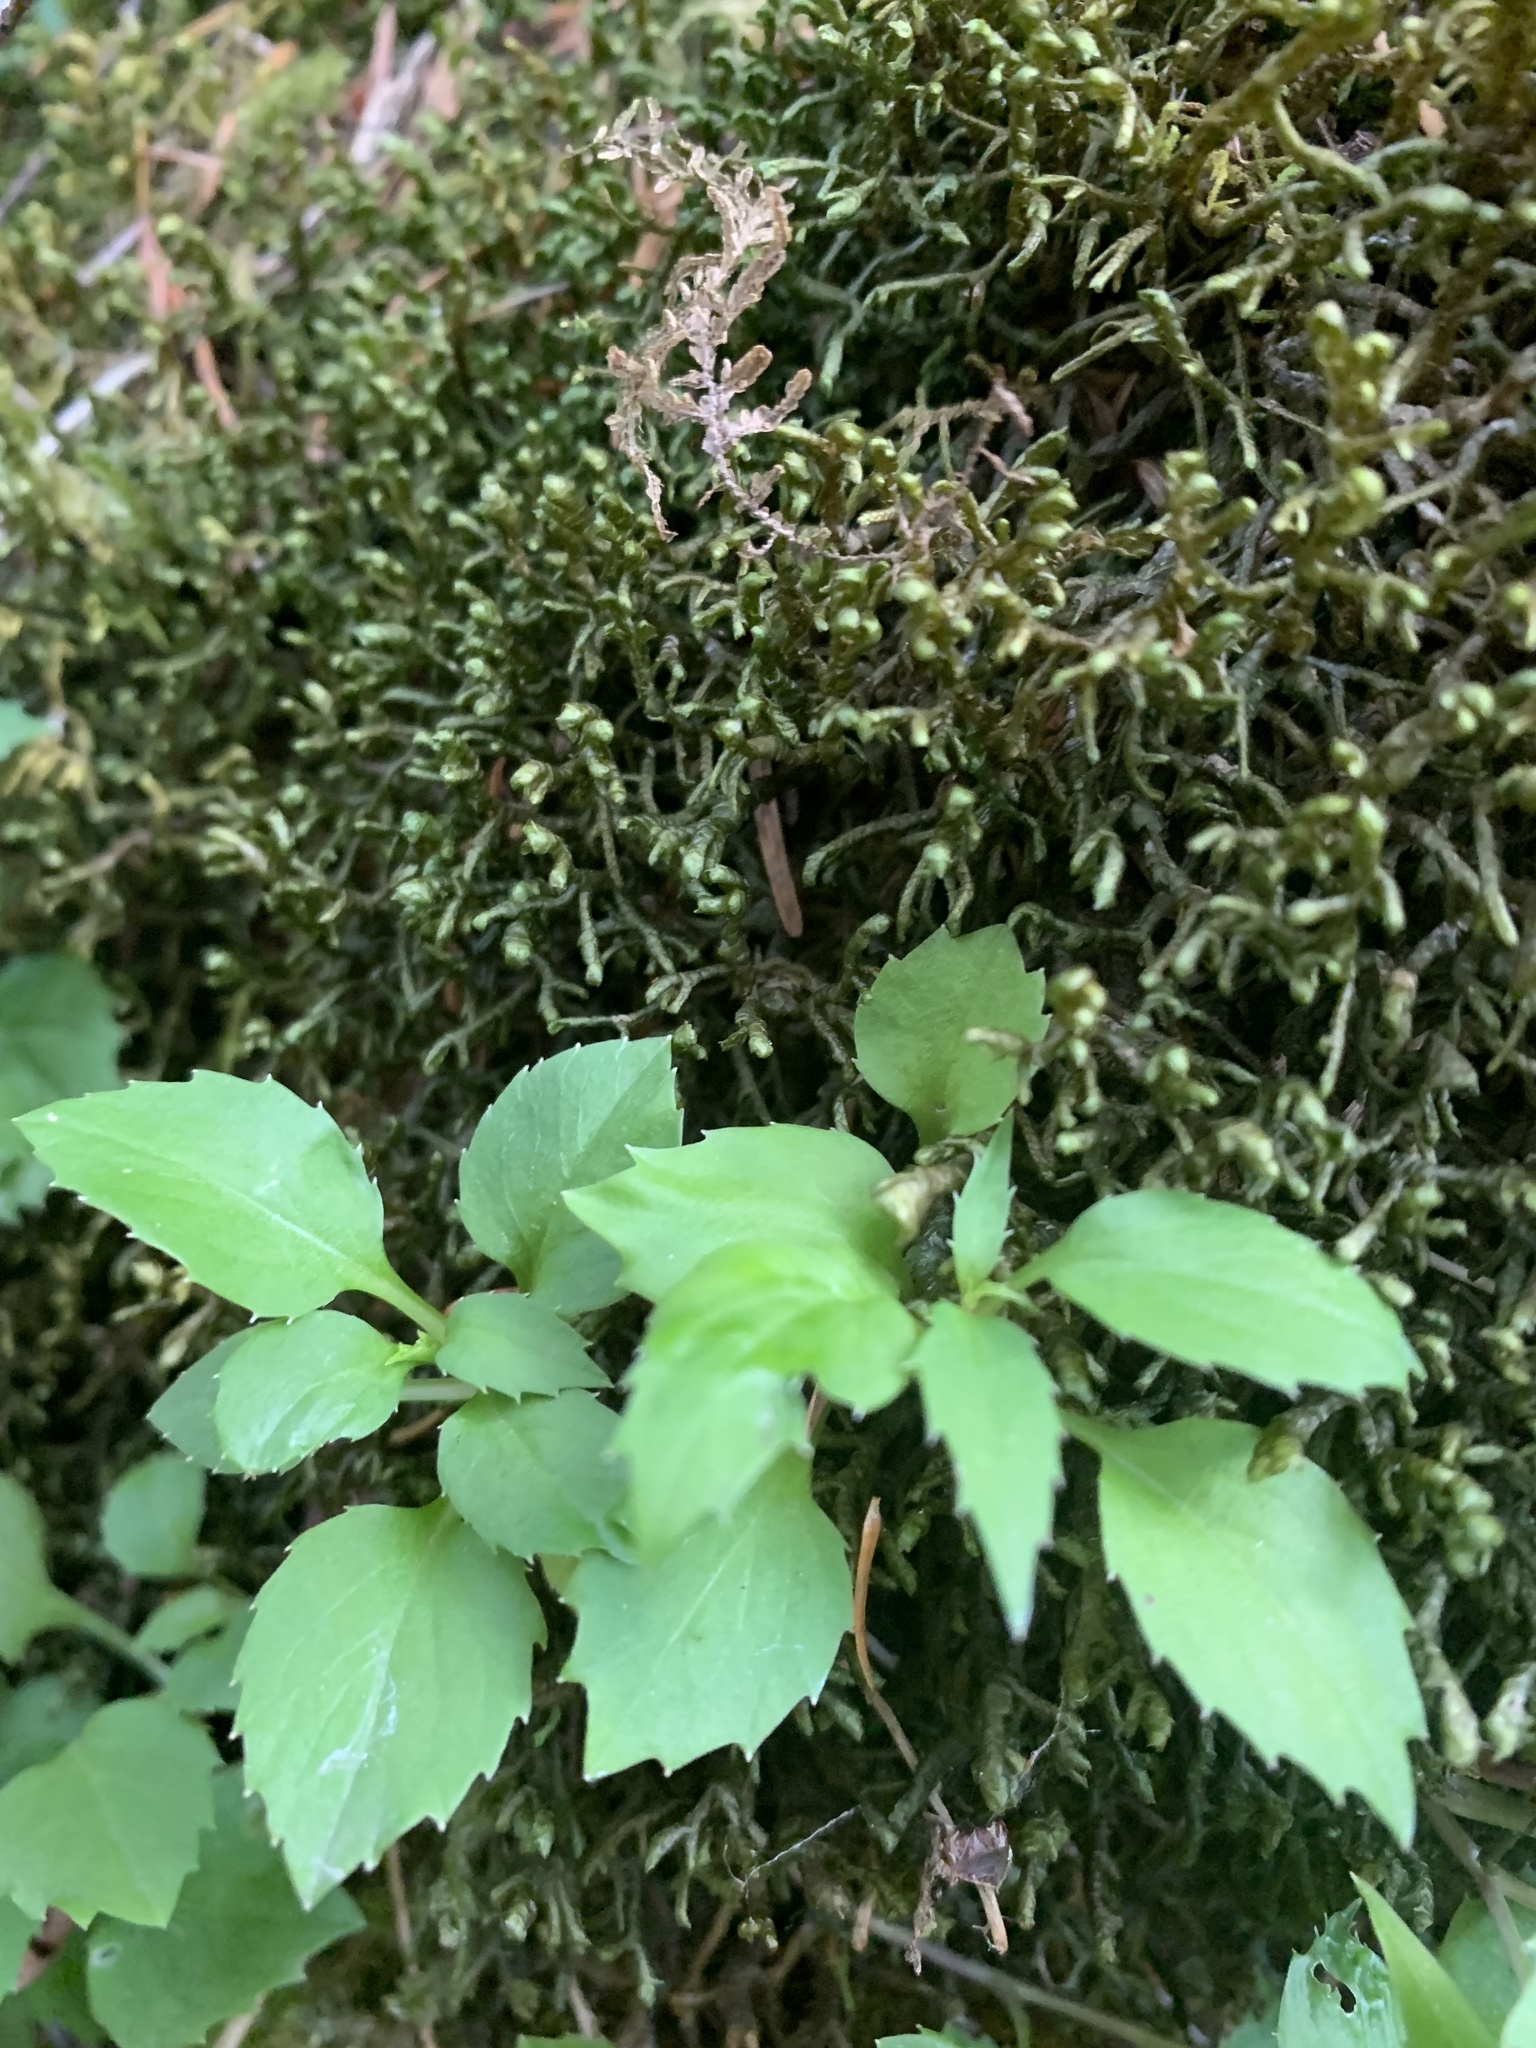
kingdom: Plantae
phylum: Tracheophyta
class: Magnoliopsida
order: Asterales
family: Campanulaceae
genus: Campanula
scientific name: Campanula scouleri
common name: Scouler's harebell
